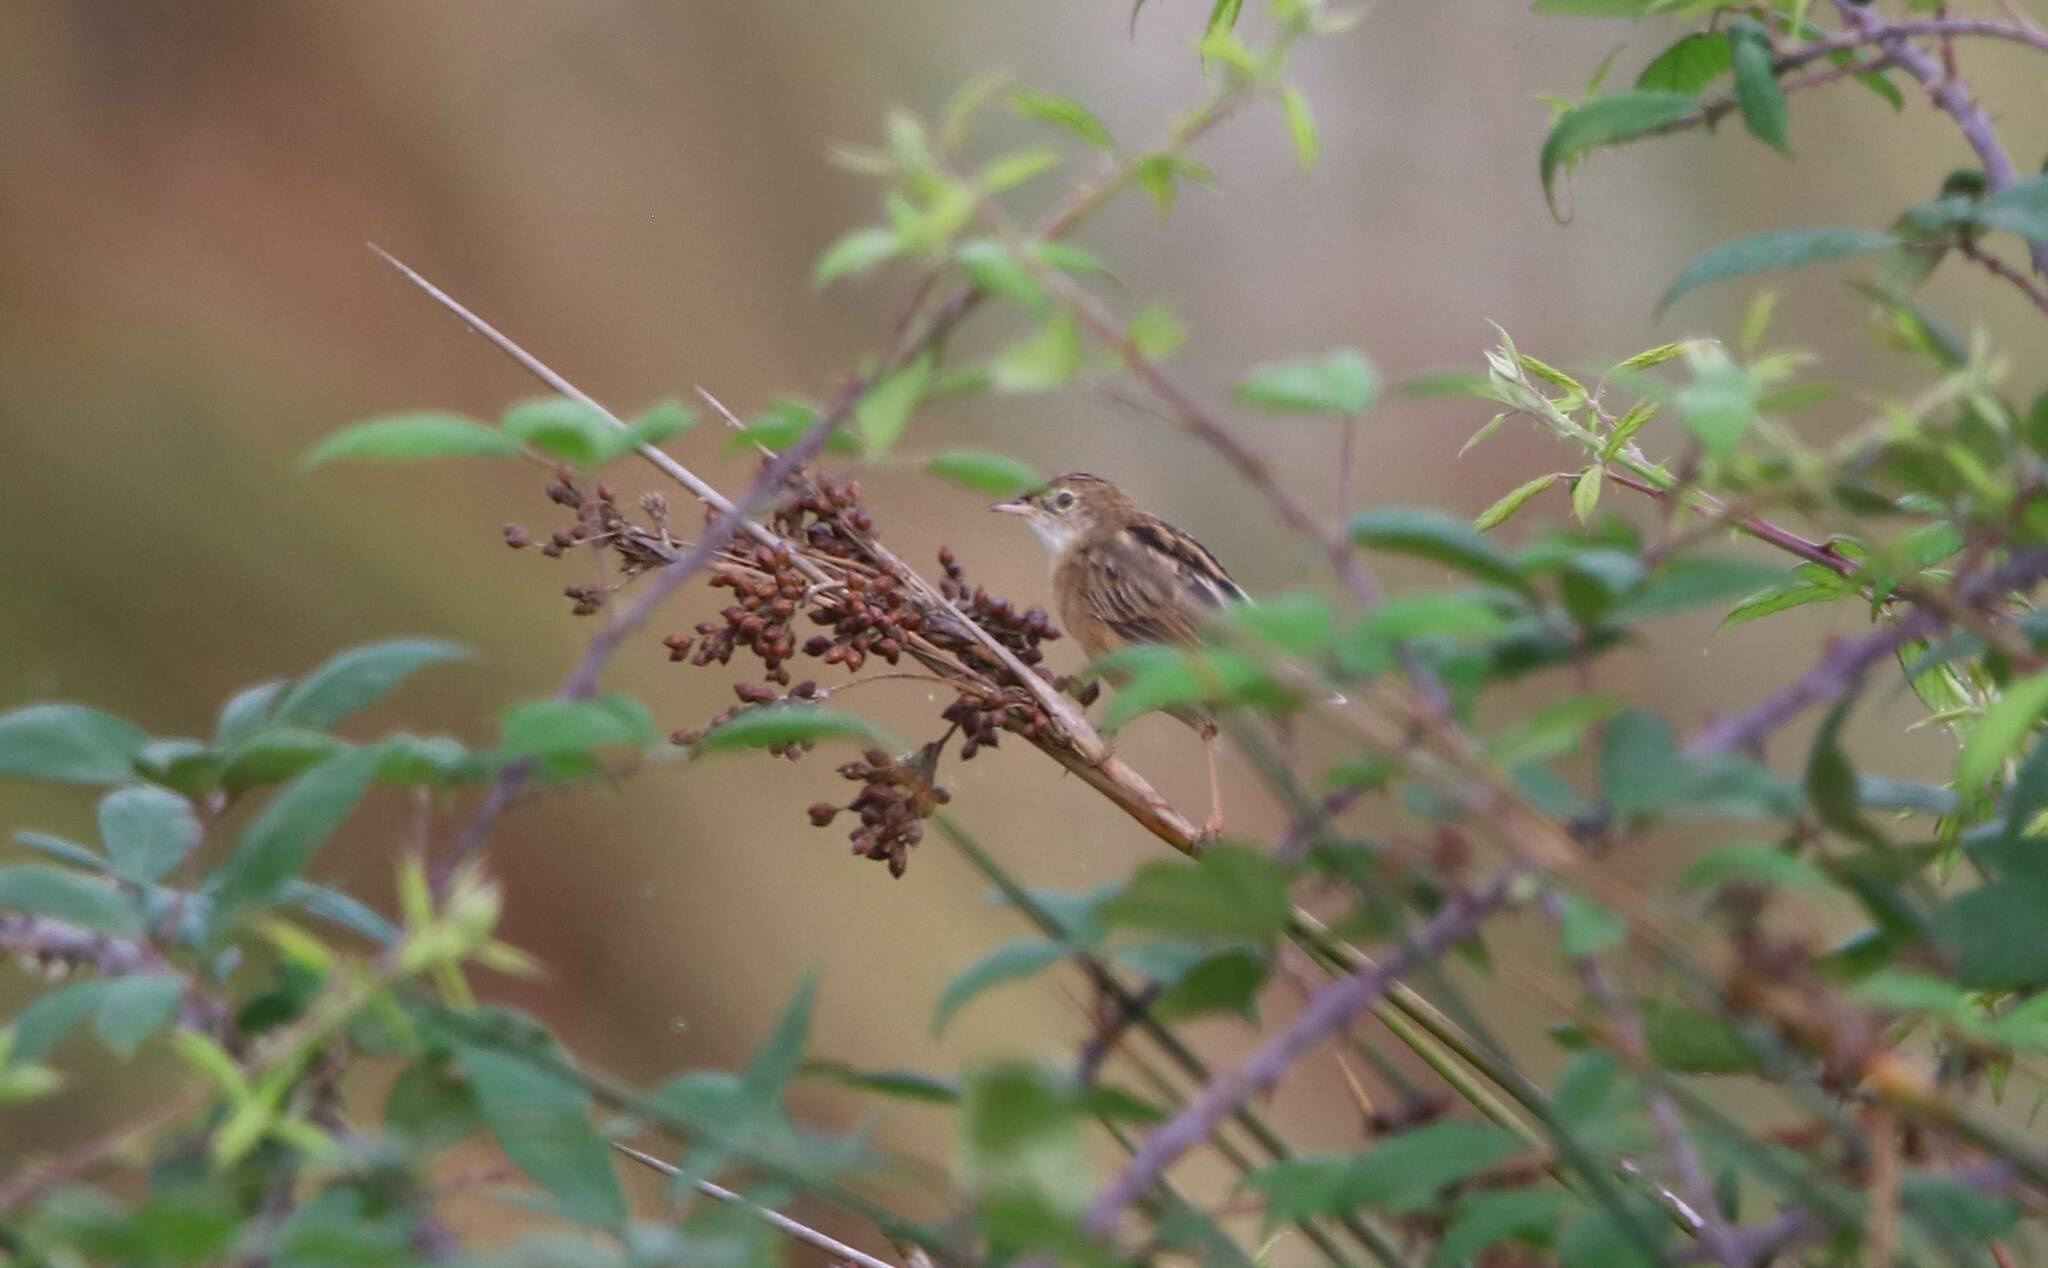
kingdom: Animalia
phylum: Chordata
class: Aves
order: Passeriformes
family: Cisticolidae
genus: Cisticola
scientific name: Cisticola juncidis
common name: Zitting cisticola
